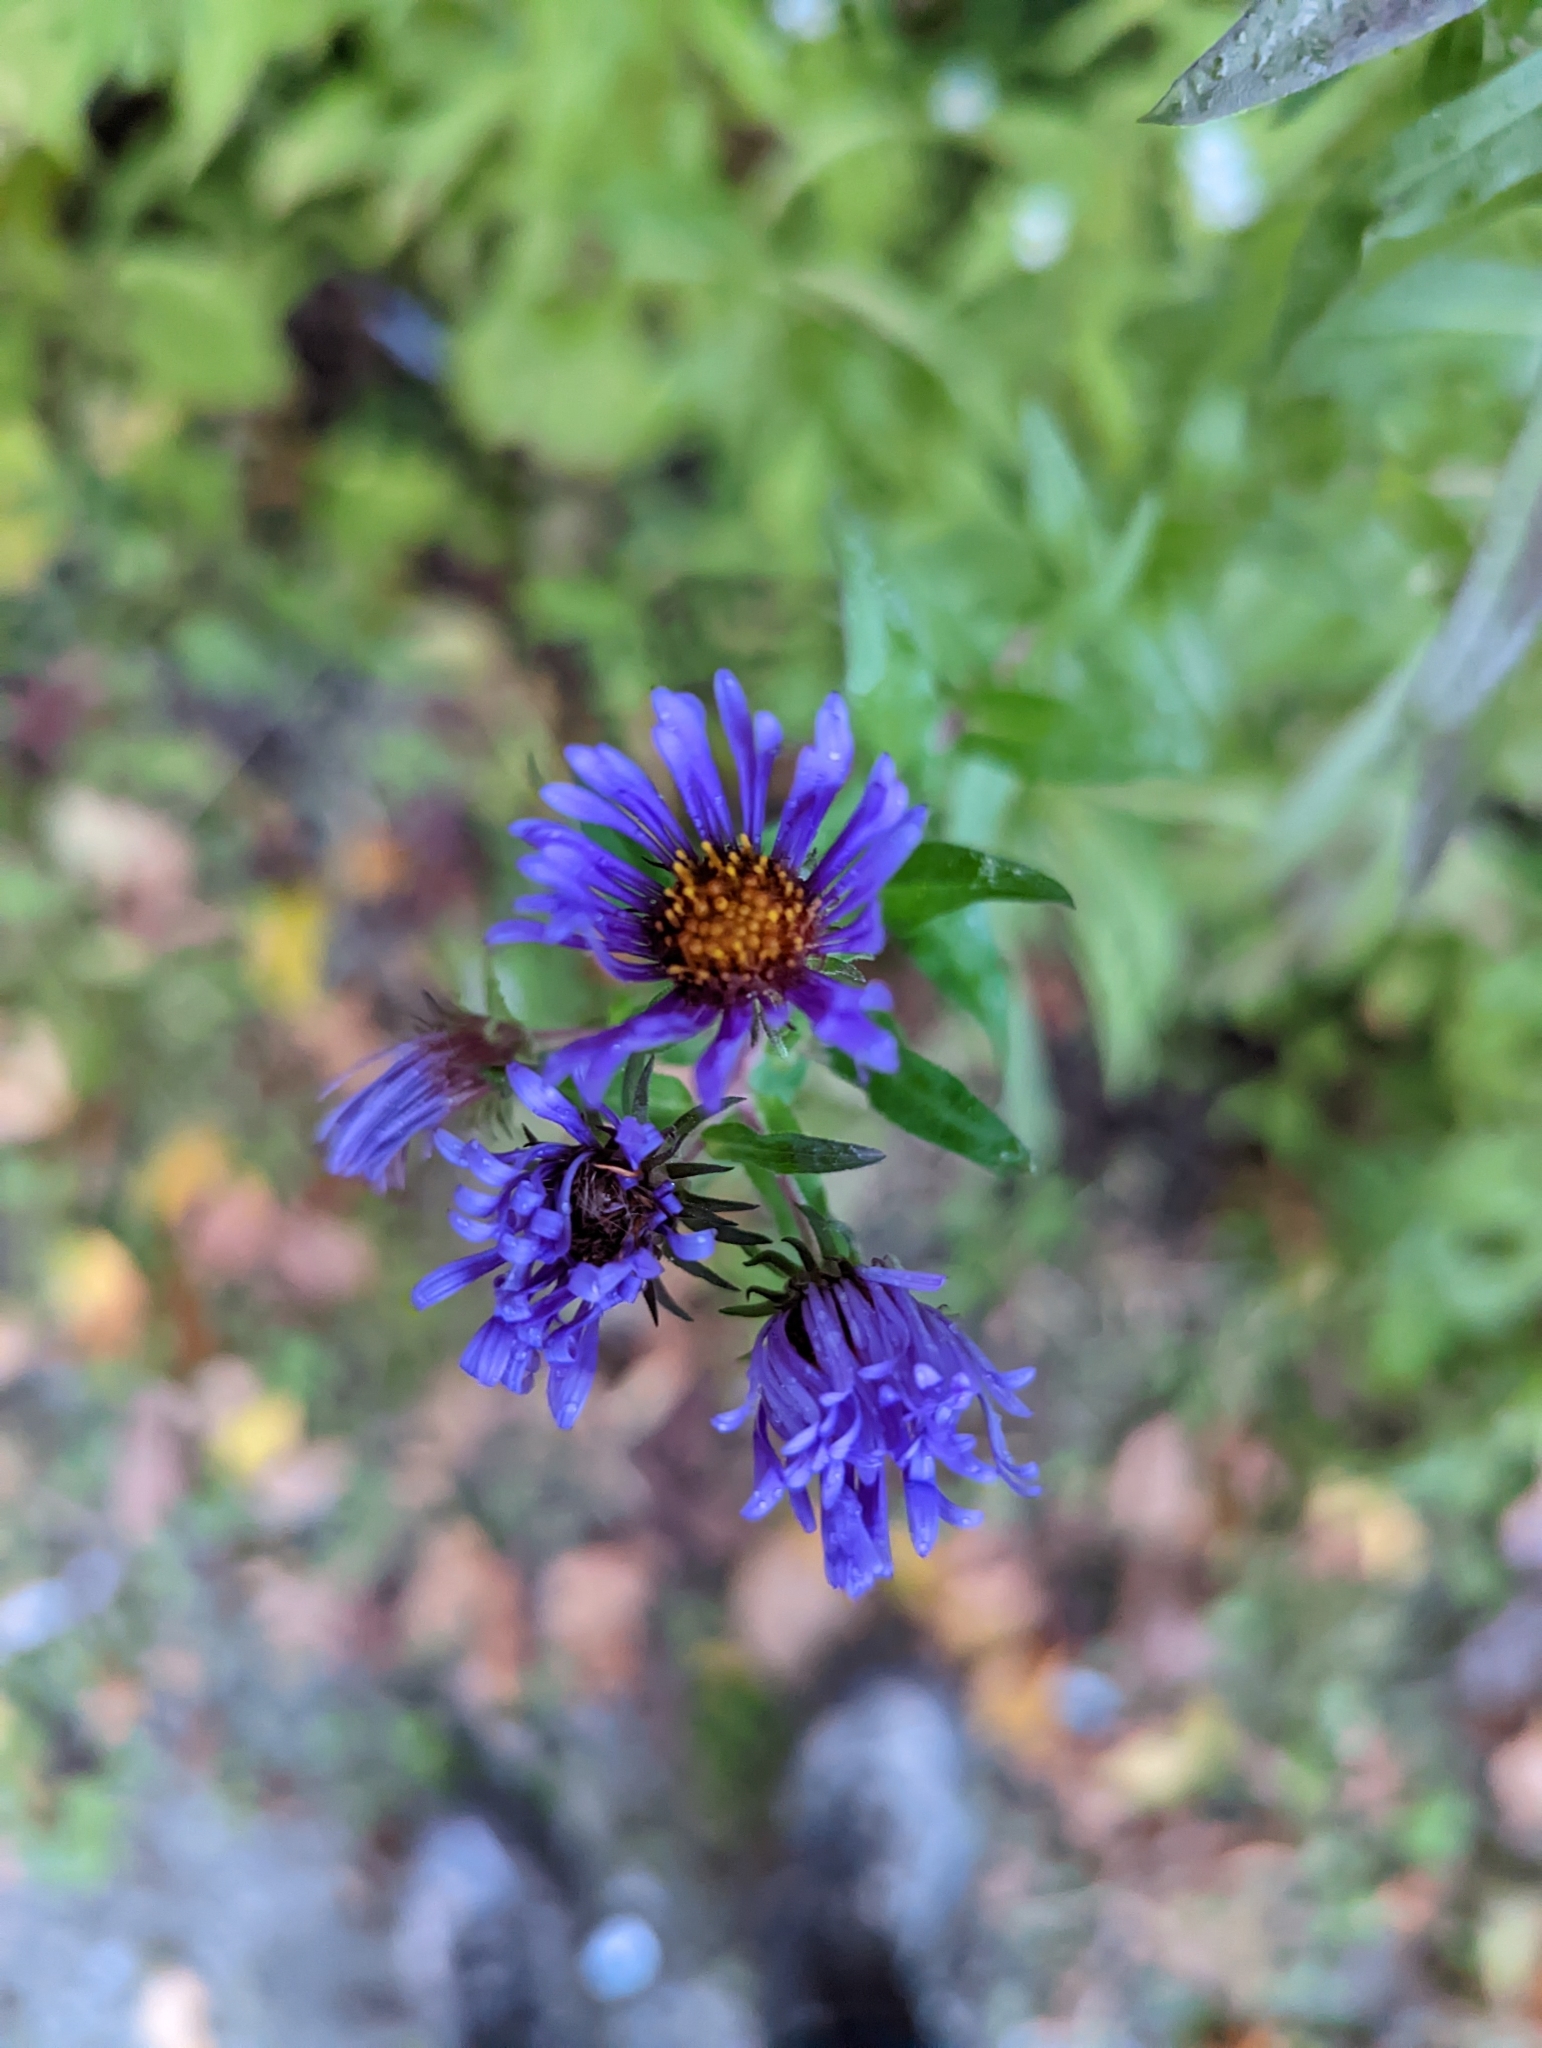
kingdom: Plantae
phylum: Tracheophyta
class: Magnoliopsida
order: Asterales
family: Asteraceae
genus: Symphyotrichum
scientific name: Symphyotrichum novae-angliae
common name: Michaelmas daisy
